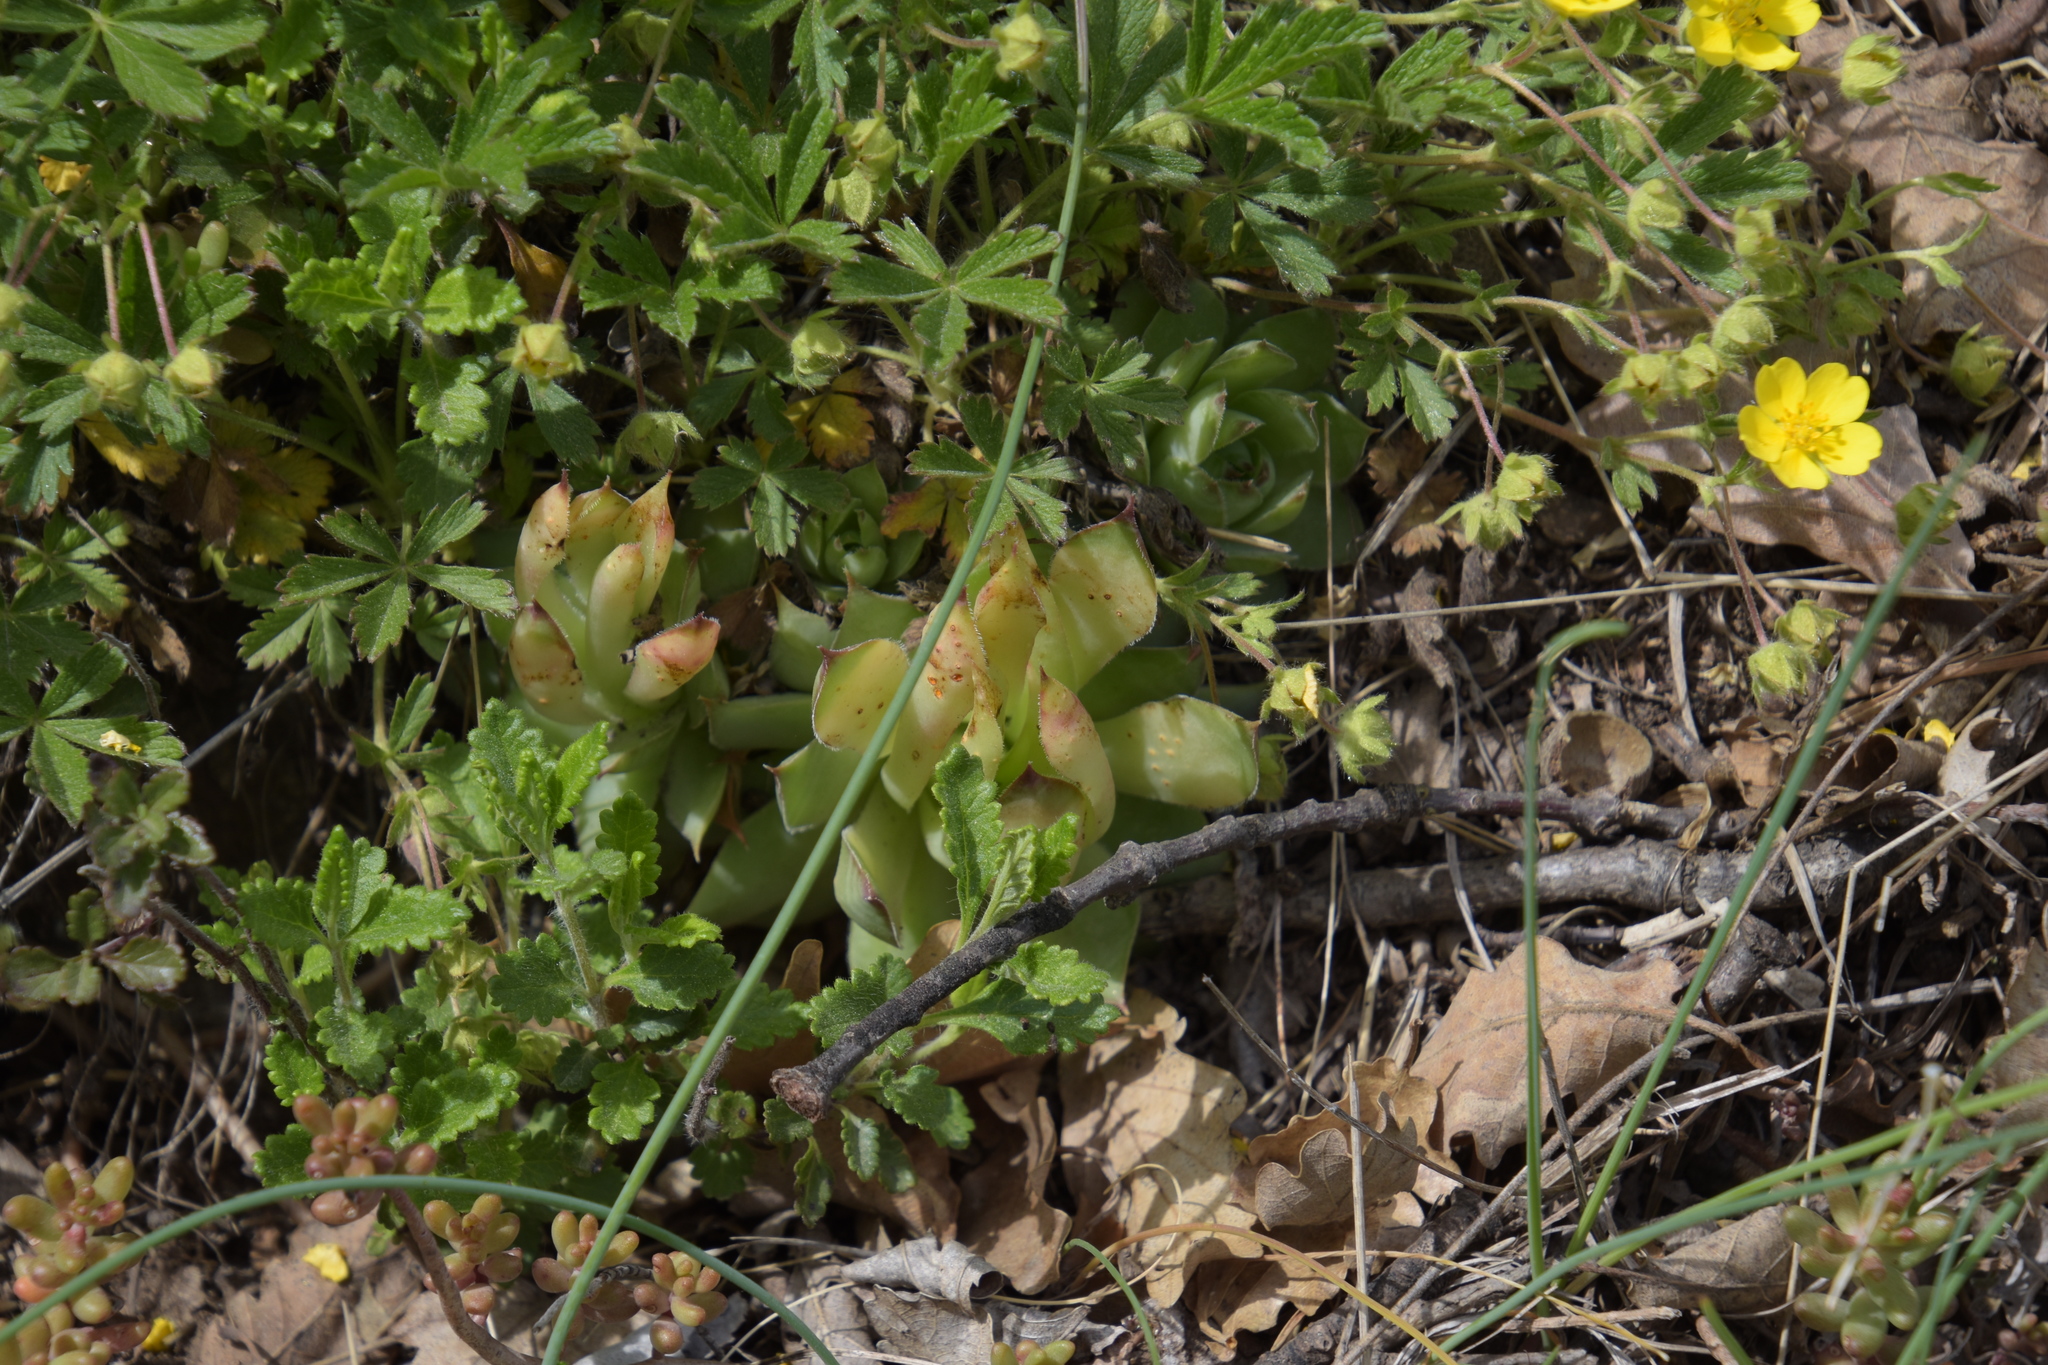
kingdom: Plantae
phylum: Tracheophyta
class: Magnoliopsida
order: Saxifragales
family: Crassulaceae
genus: Sempervivum
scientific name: Sempervivum tectorum
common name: House-leek
